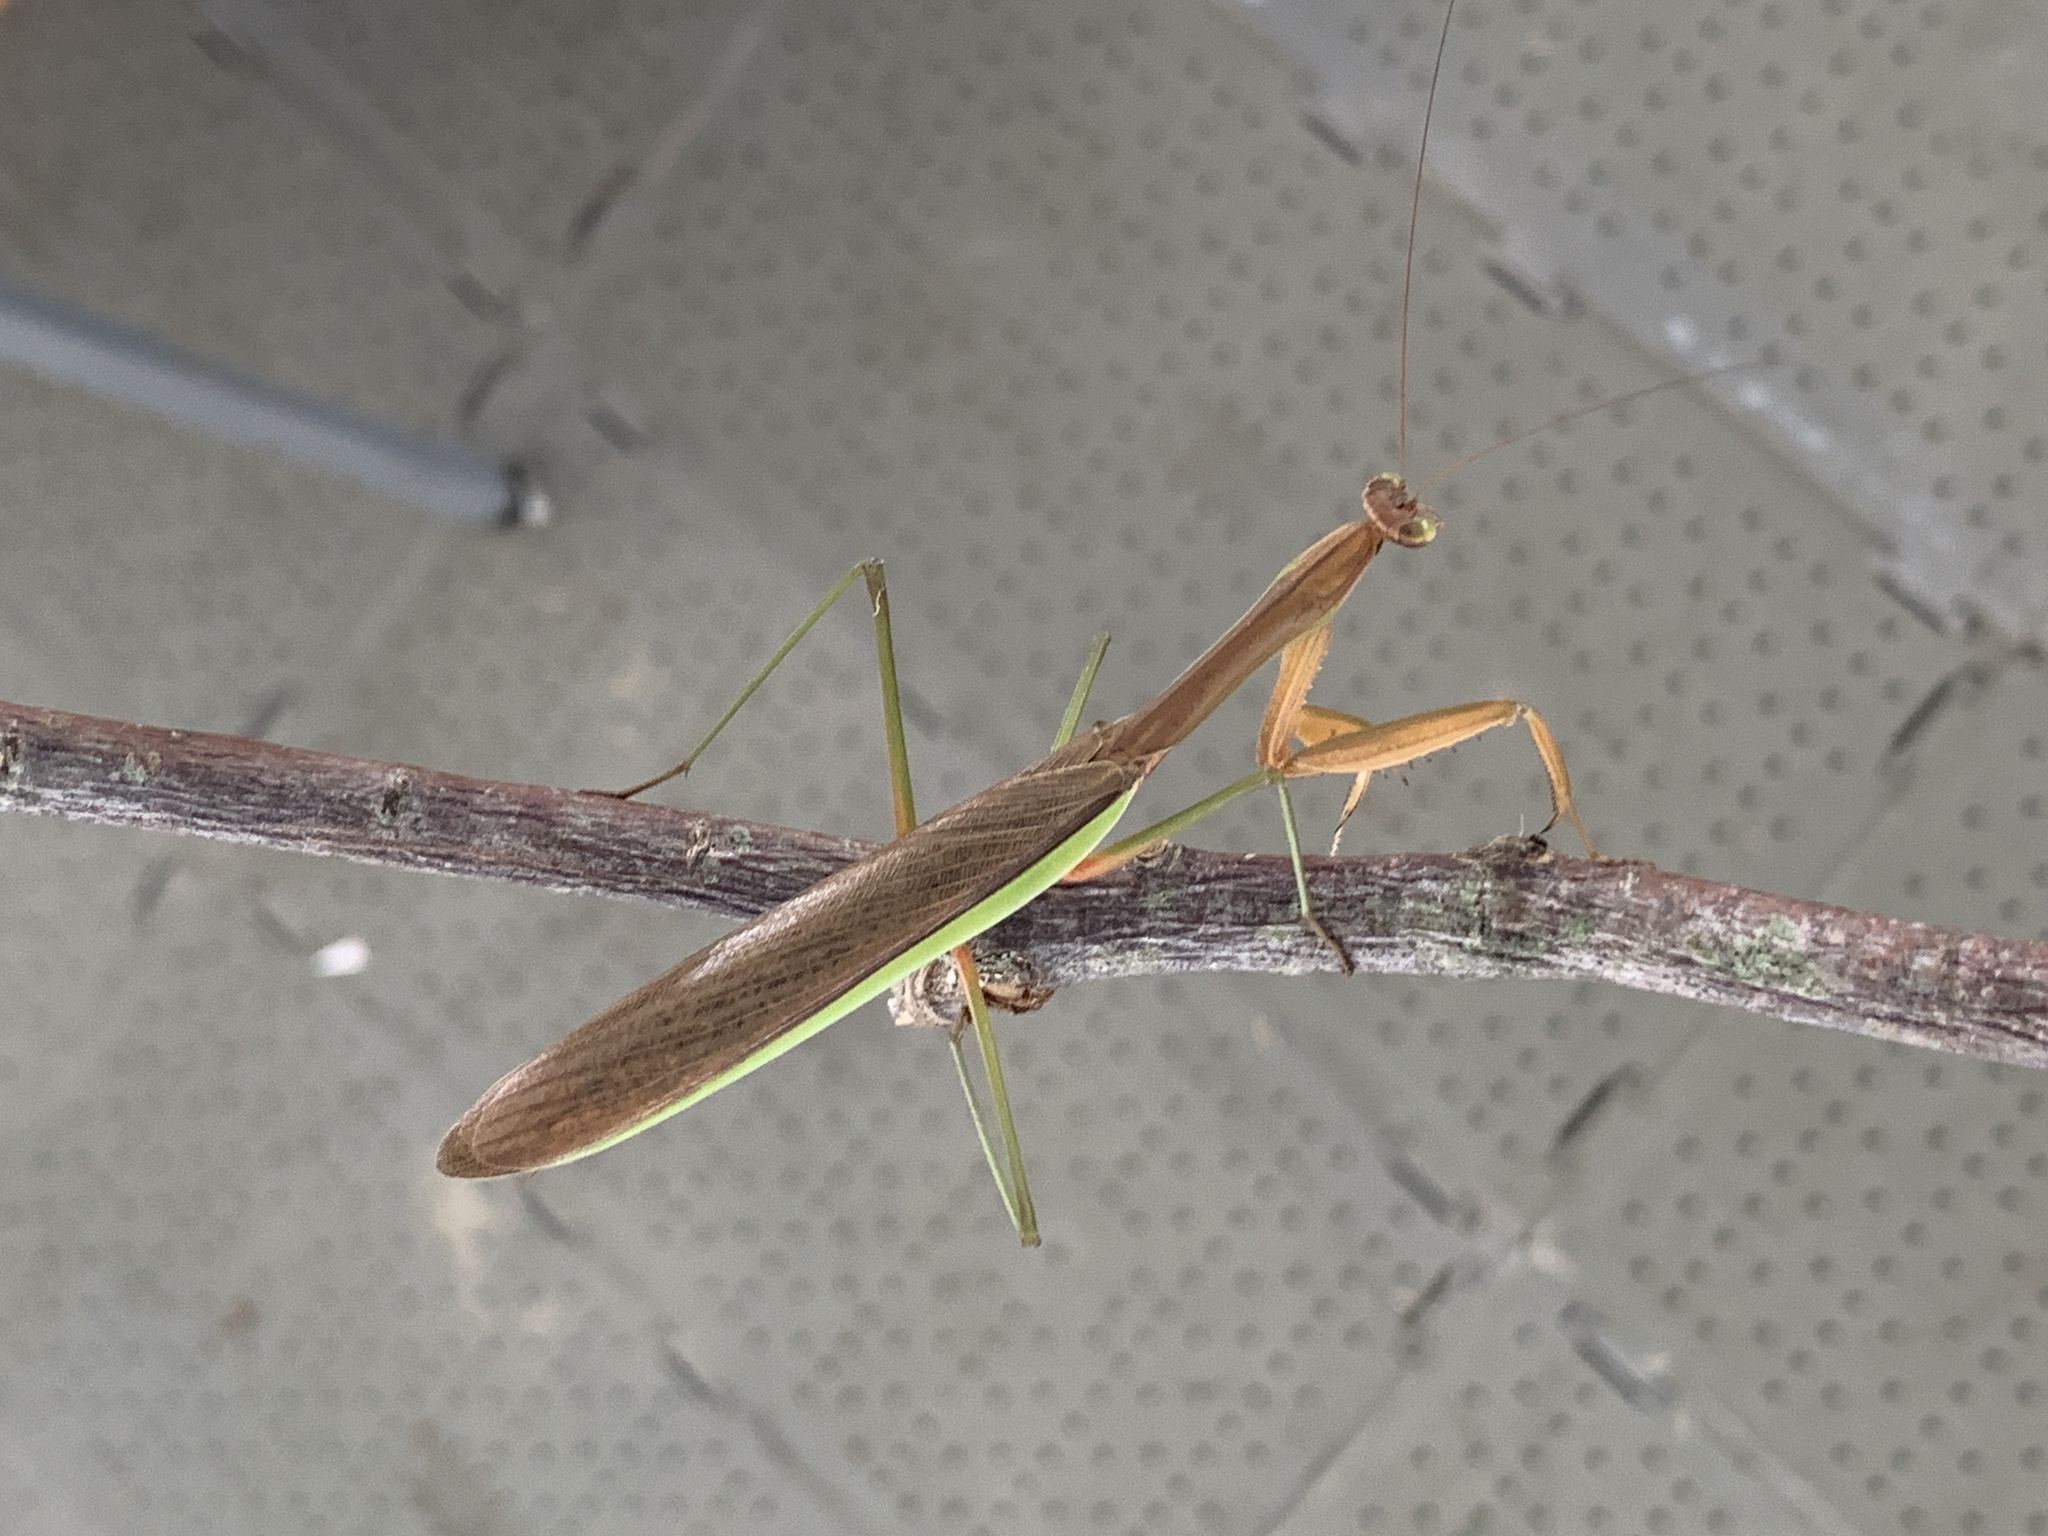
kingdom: Animalia
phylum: Arthropoda
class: Insecta
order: Mantodea
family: Mantidae
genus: Tenodera
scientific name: Tenodera sinensis
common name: Chinese mantis
